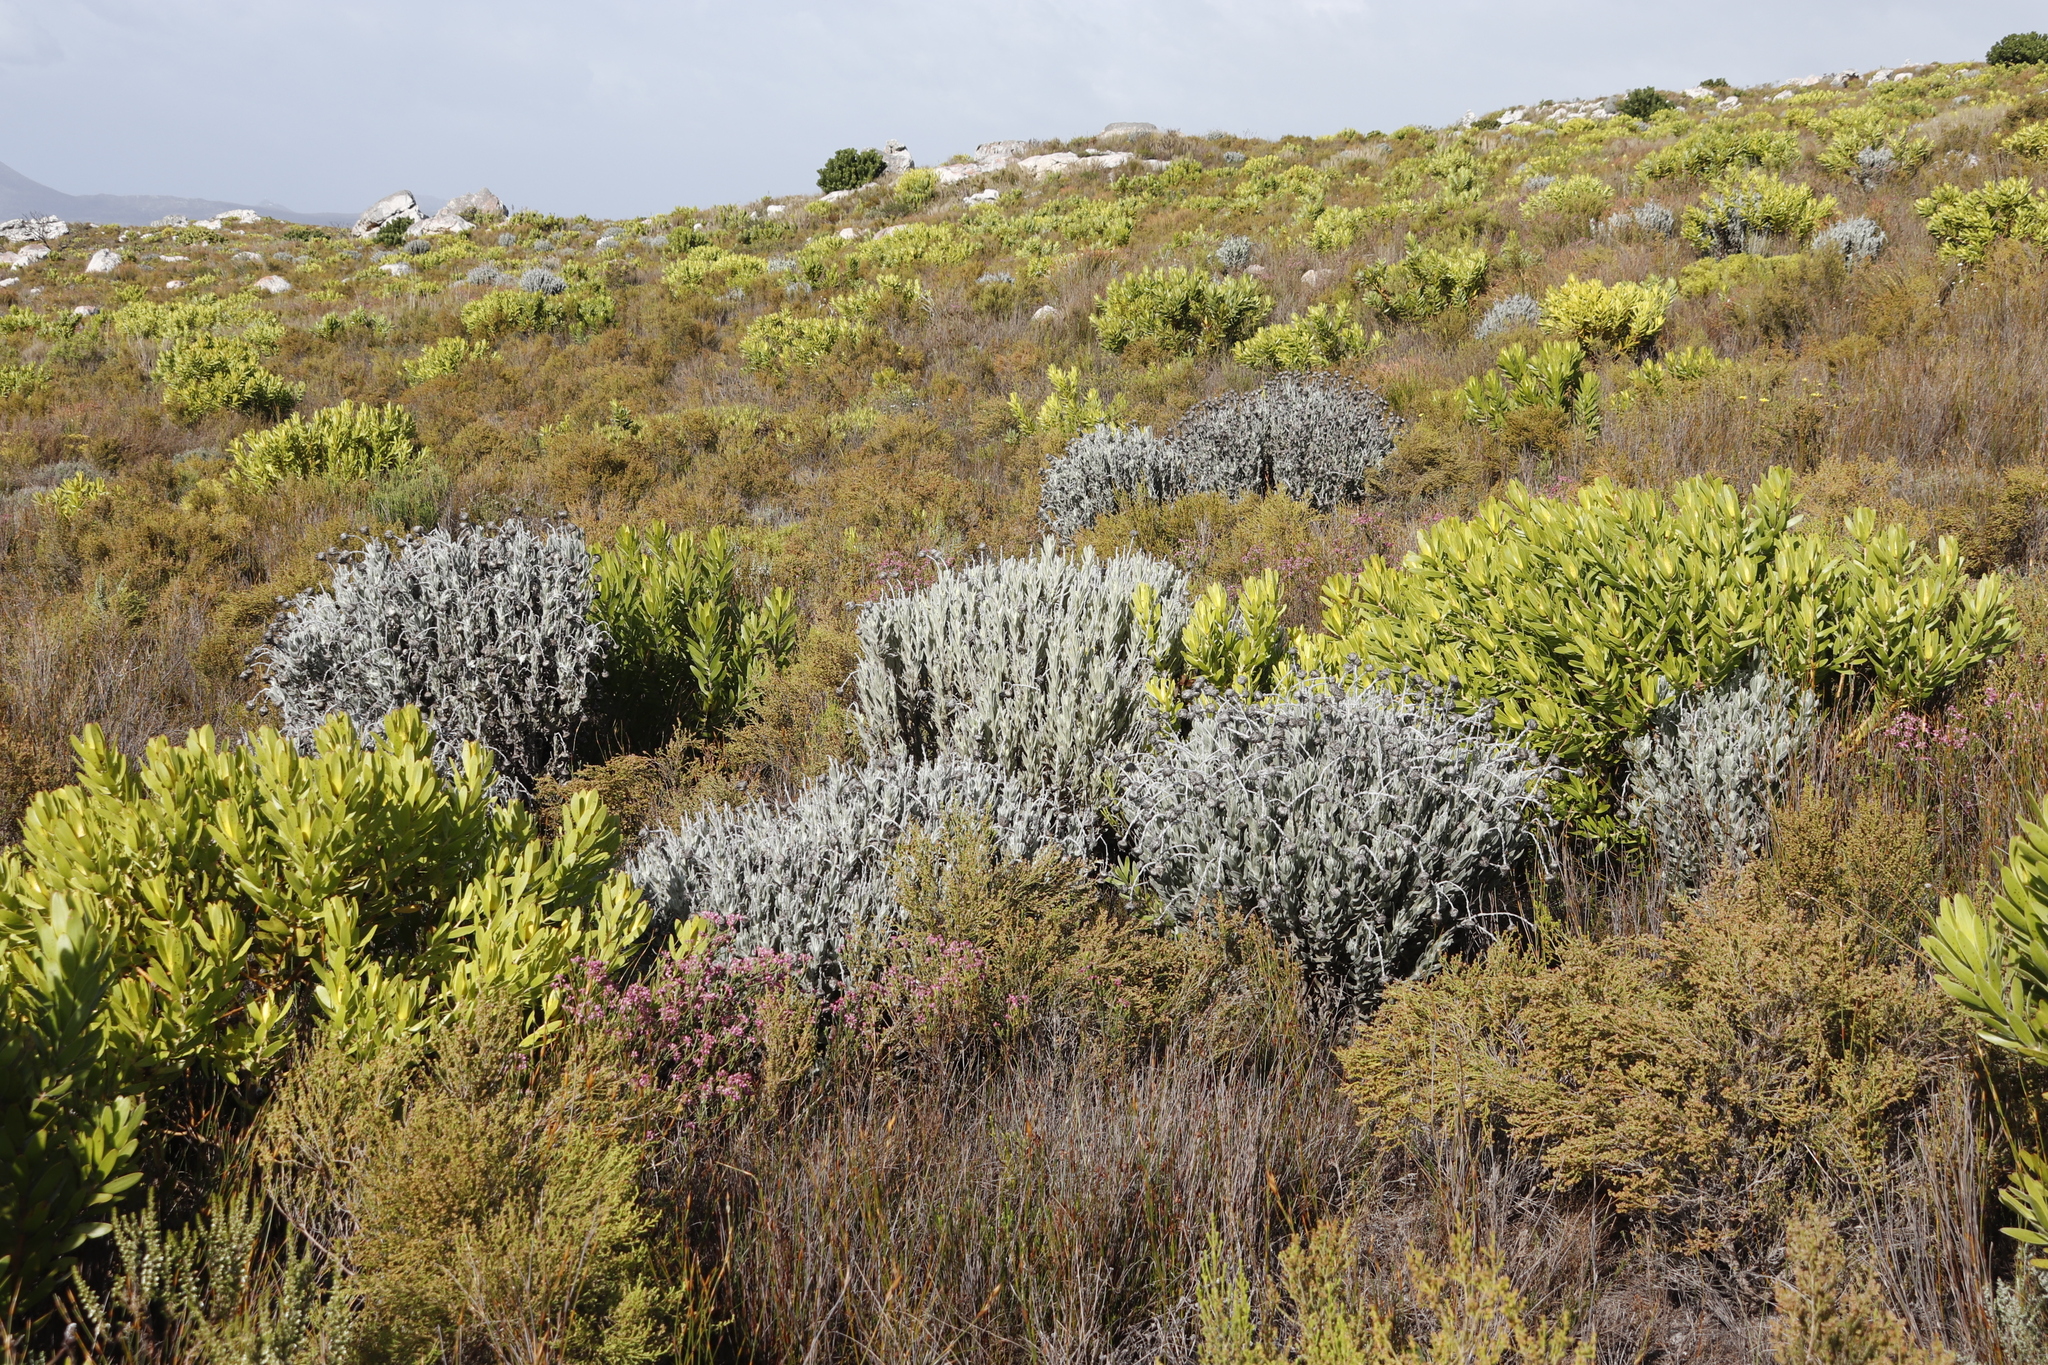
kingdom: Plantae
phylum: Tracheophyta
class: Magnoliopsida
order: Asterales
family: Asteraceae
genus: Syncarpha
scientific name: Syncarpha vestita
